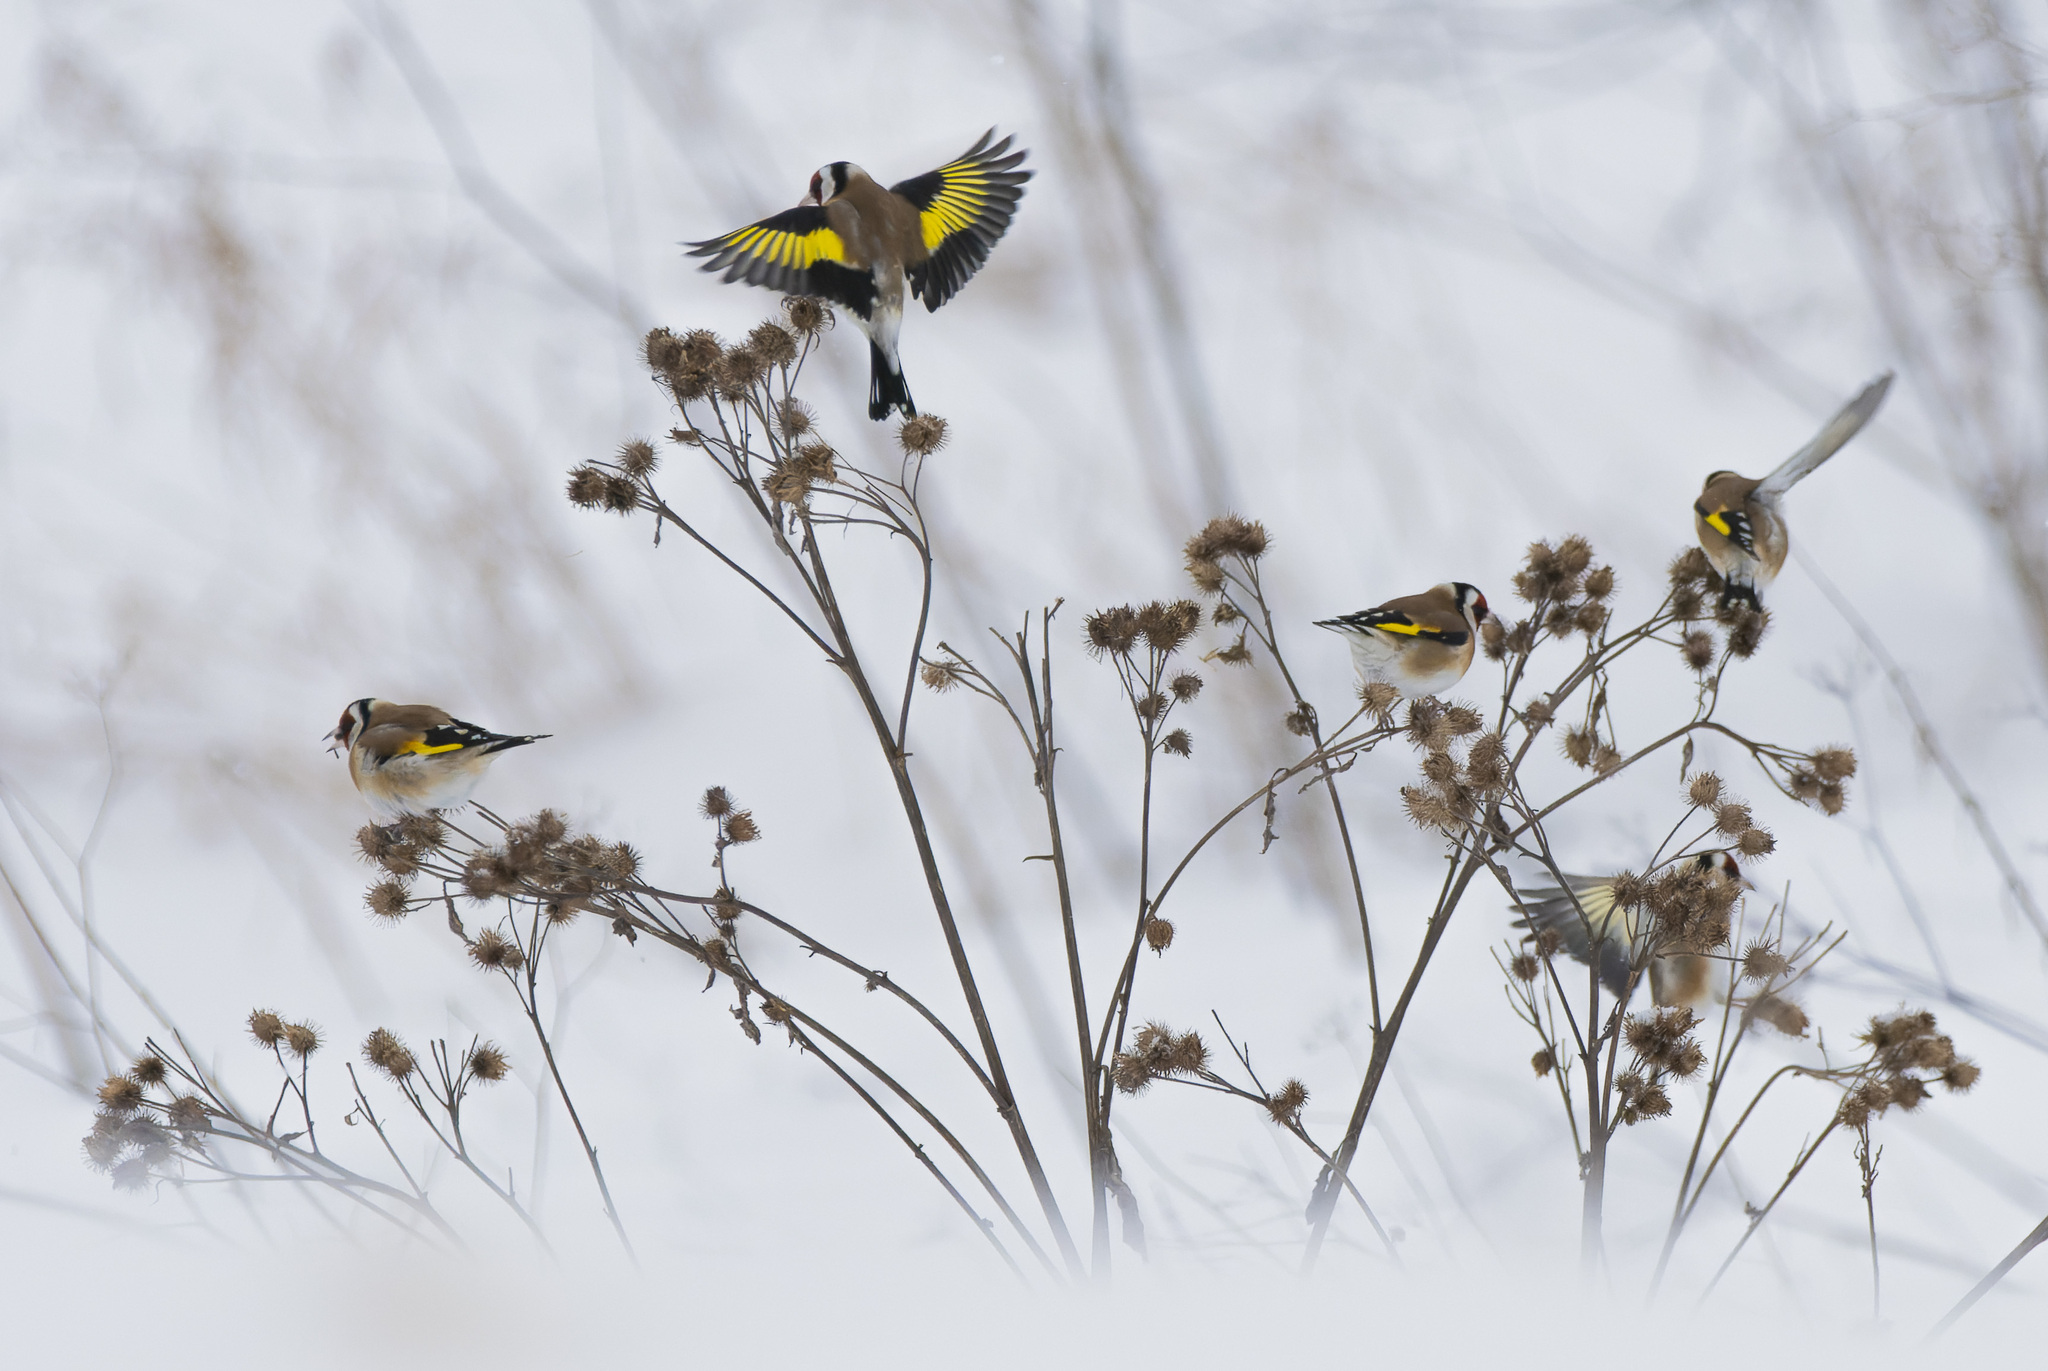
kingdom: Animalia
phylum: Chordata
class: Aves
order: Passeriformes
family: Fringillidae
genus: Carduelis
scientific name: Carduelis carduelis
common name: European goldfinch
